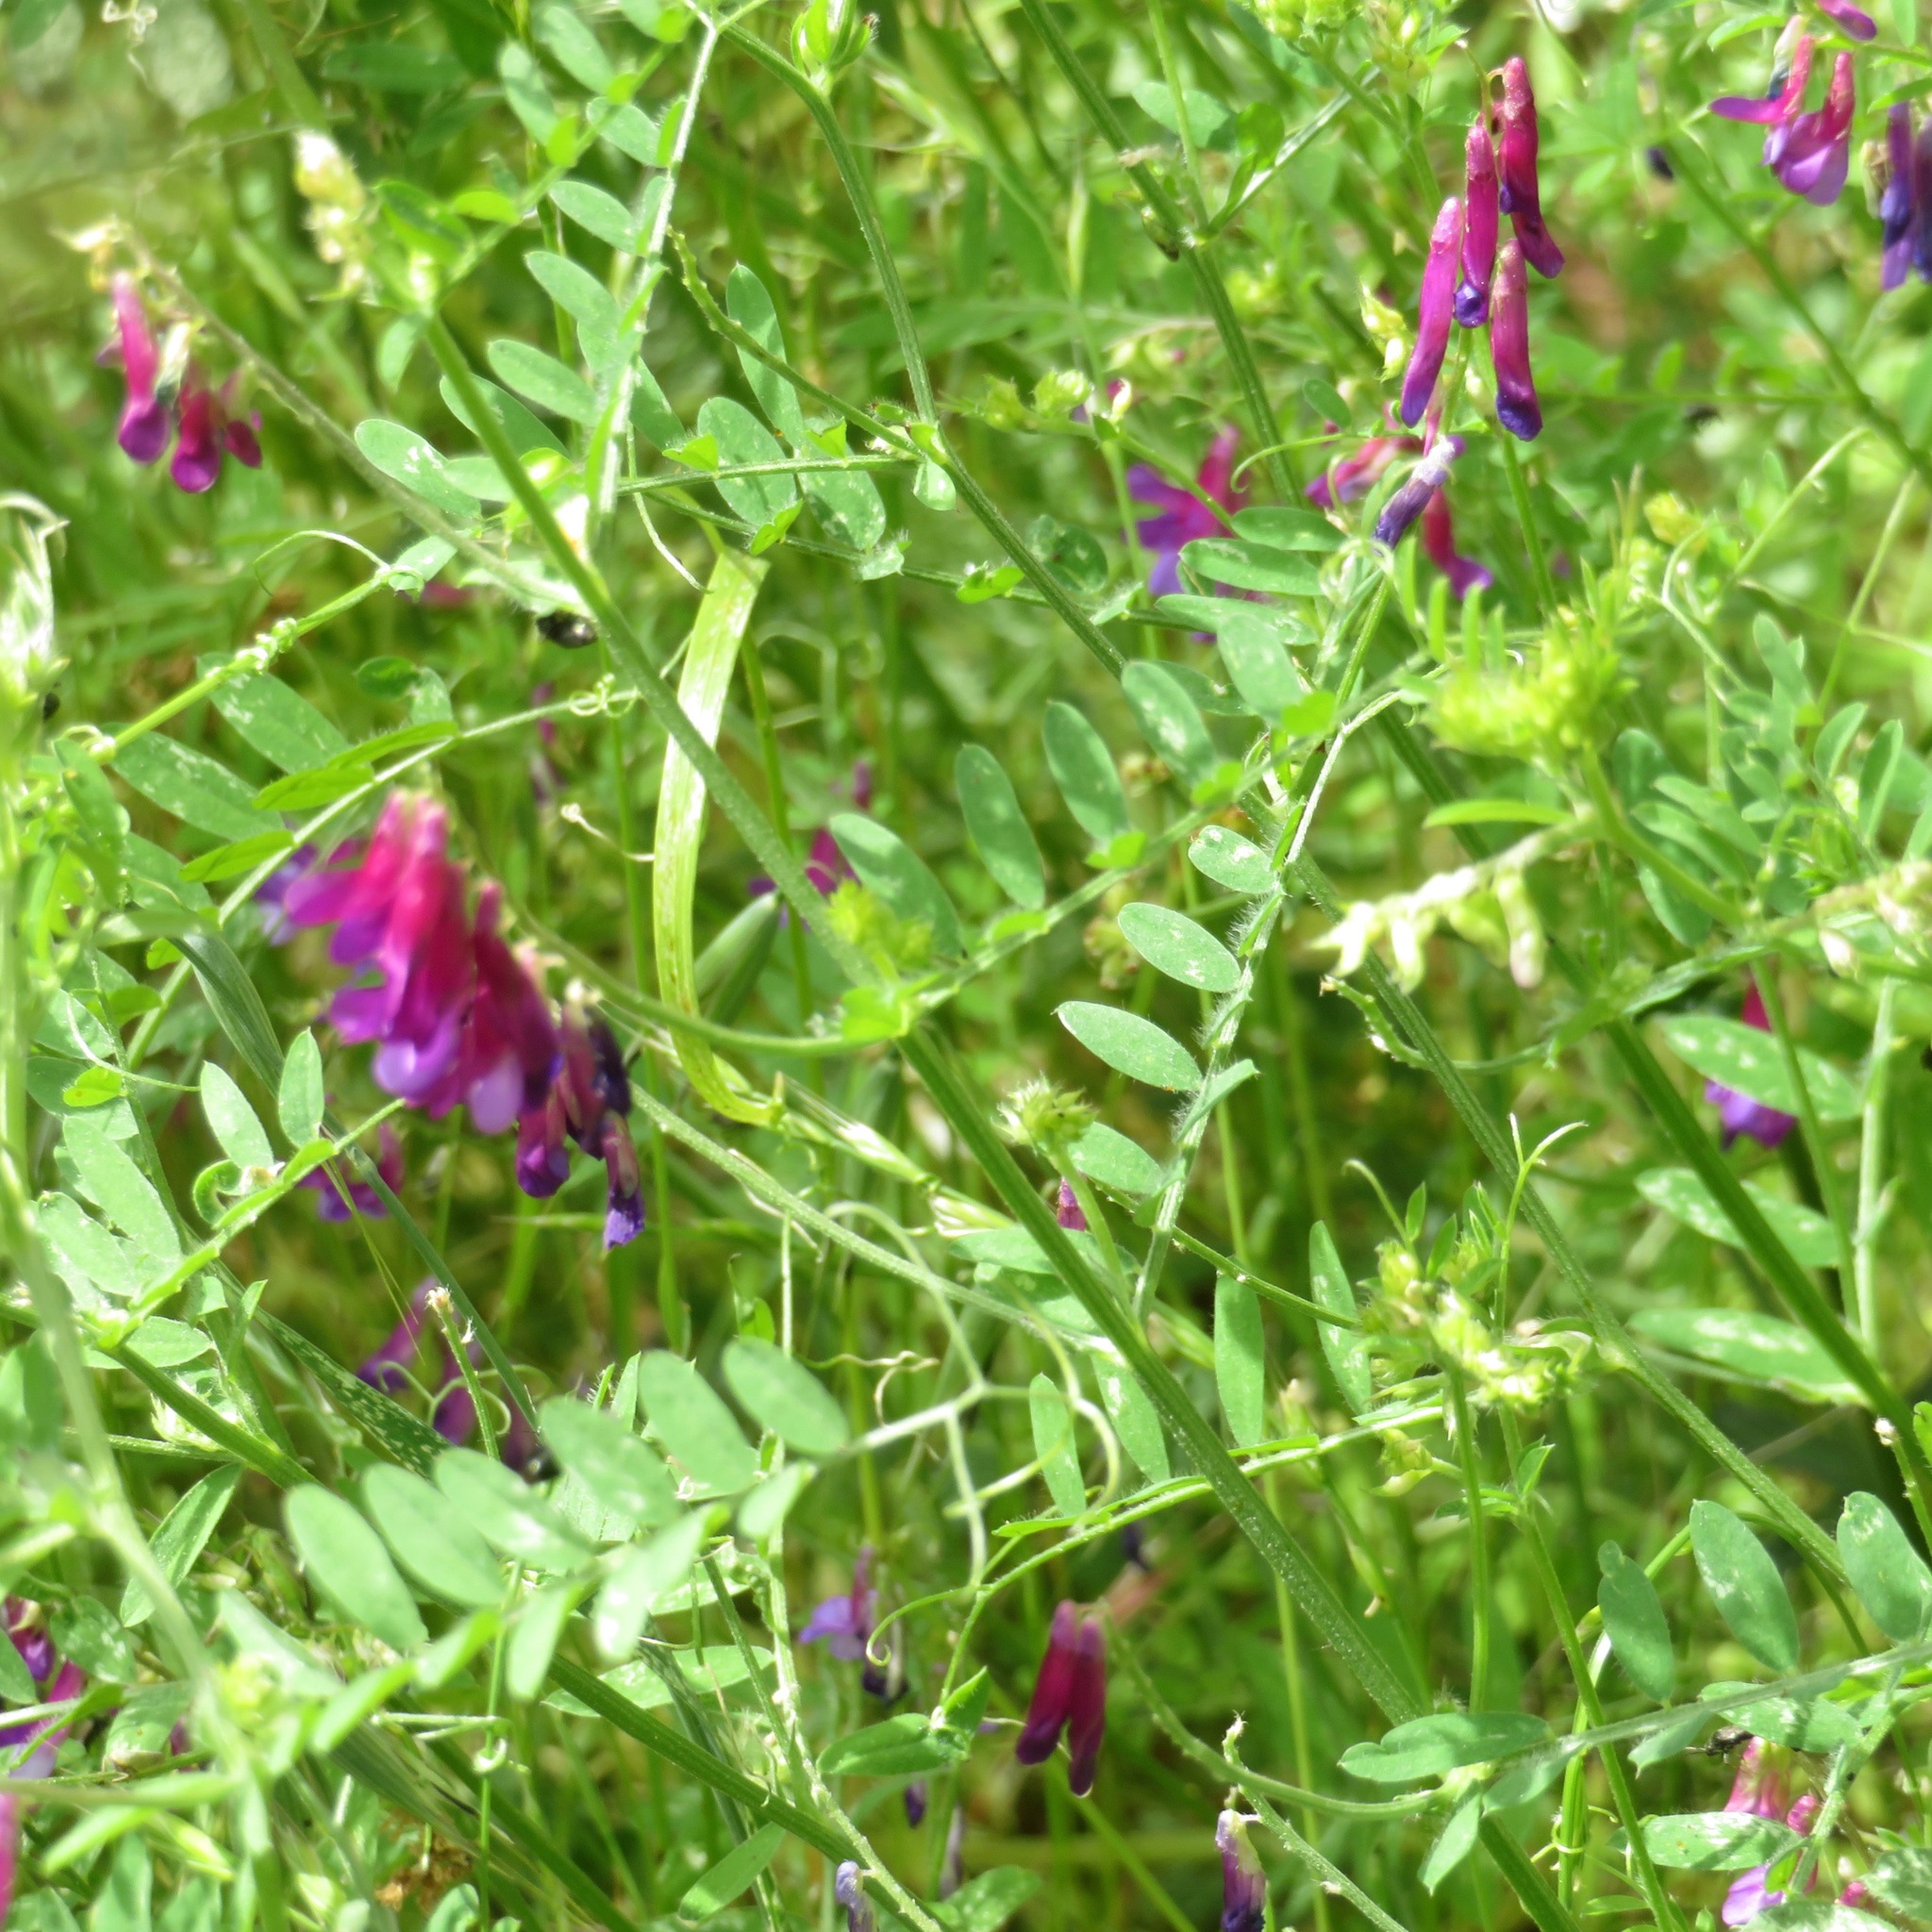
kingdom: Plantae
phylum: Tracheophyta
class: Magnoliopsida
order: Fabales
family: Fabaceae
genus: Vicia
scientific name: Vicia villosa
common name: Fodder vetch
